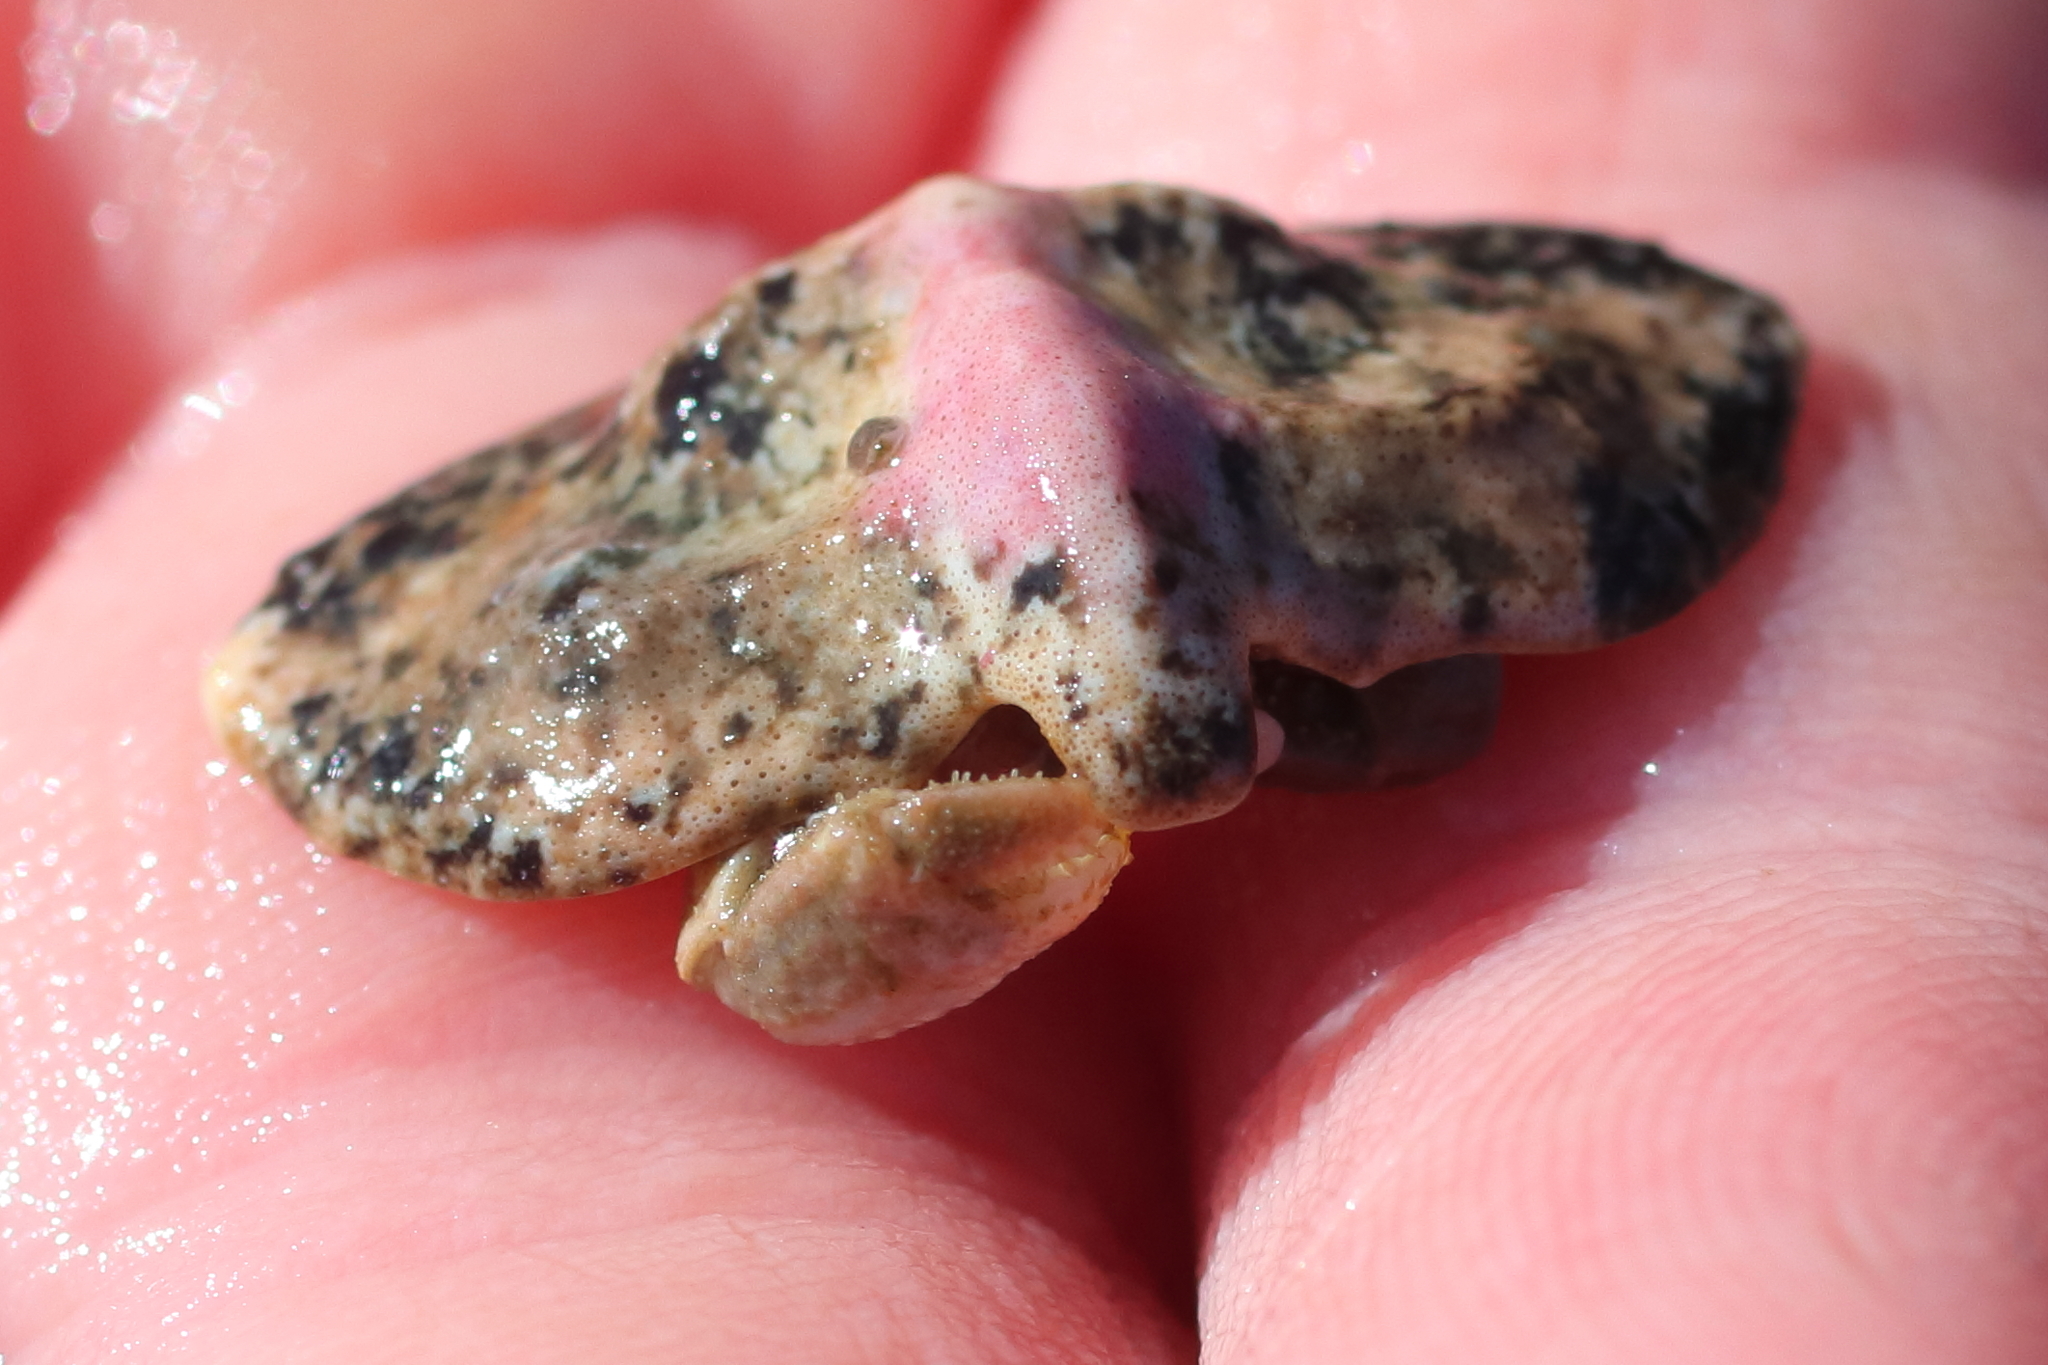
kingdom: Animalia
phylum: Arthropoda
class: Malacostraca
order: Decapoda
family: Lithodidae
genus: Cryptolithodes
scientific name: Cryptolithodes typicus
